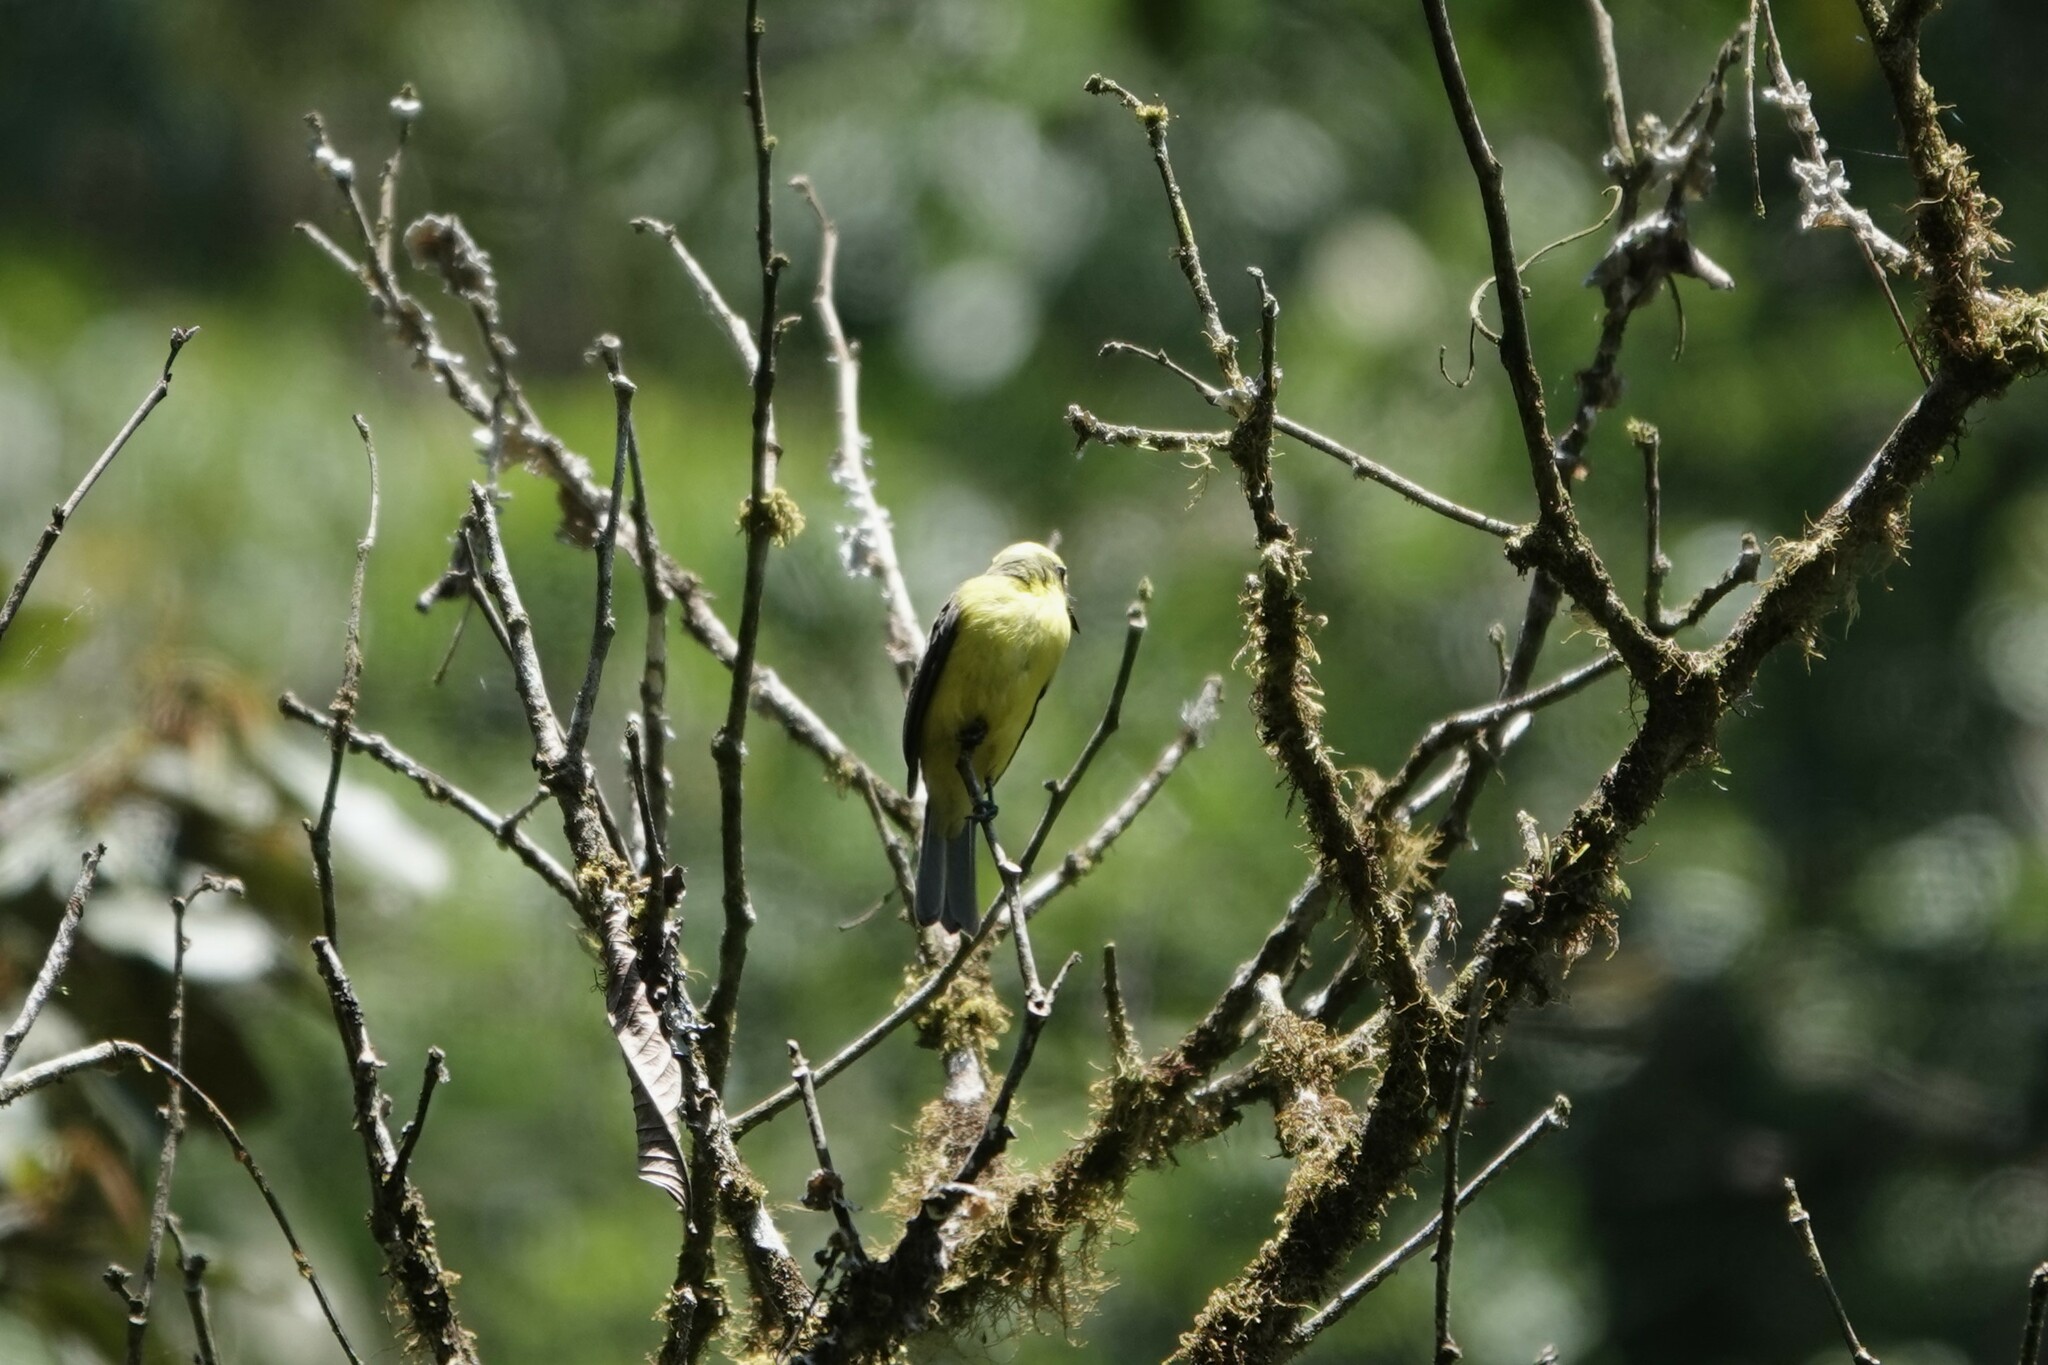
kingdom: Animalia
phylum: Chordata
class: Aves
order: Passeriformes
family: Tyrannidae
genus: Conopias
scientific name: Conopias cinchoneti
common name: Lemon-browed flycatcher
